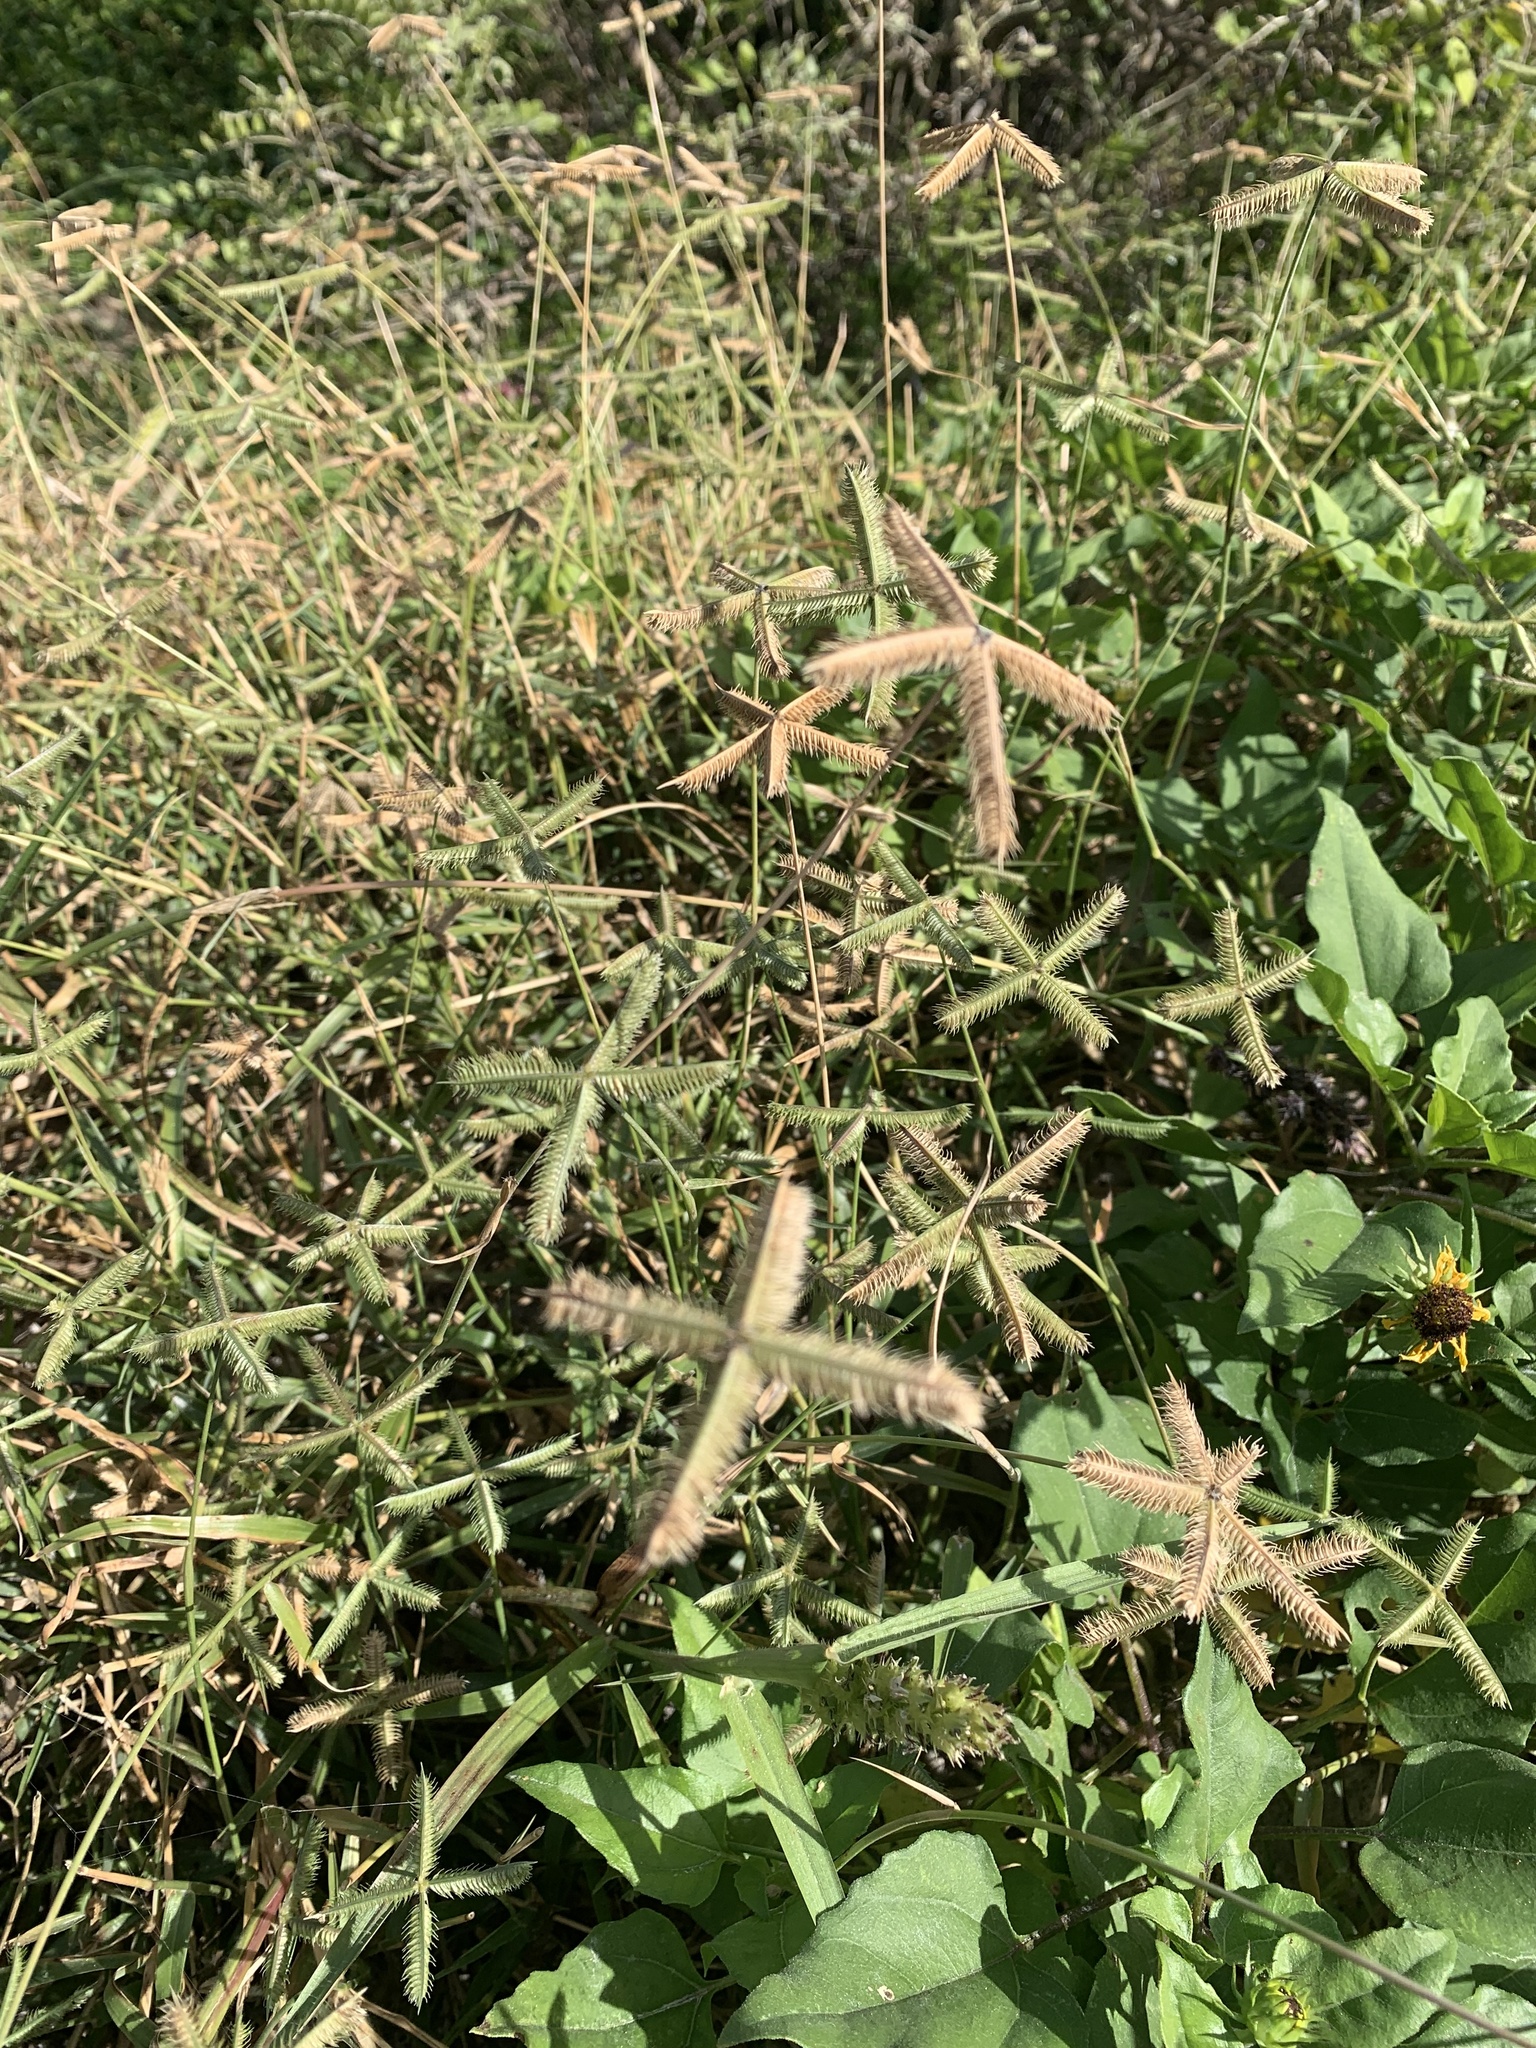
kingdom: Plantae
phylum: Tracheophyta
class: Liliopsida
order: Poales
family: Poaceae
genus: Dactyloctenium
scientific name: Dactyloctenium aegyptium
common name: Egyptian grass
